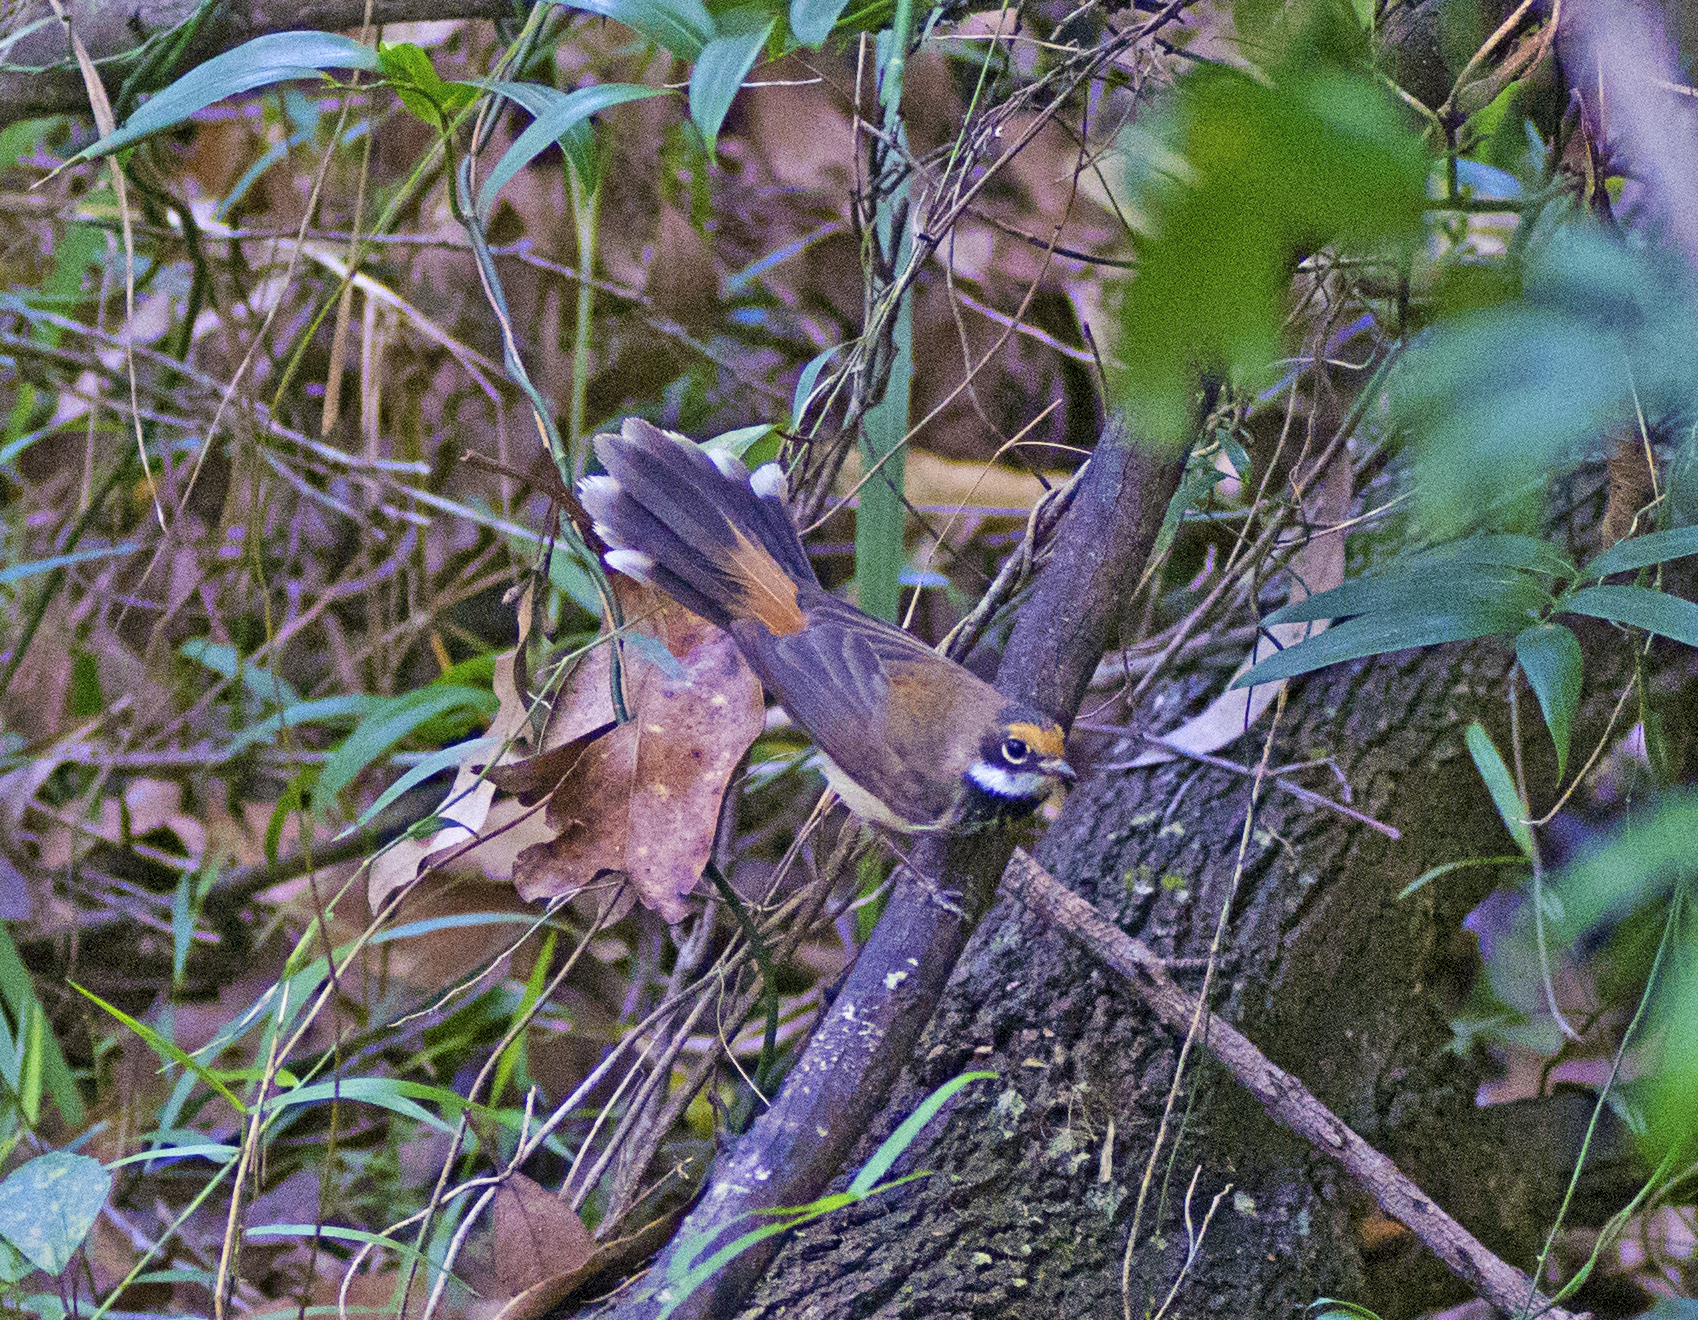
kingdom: Animalia
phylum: Chordata
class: Aves
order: Passeriformes
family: Rhipiduridae
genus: Rhipidura
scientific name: Rhipidura rufifrons
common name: Rufous fantail
